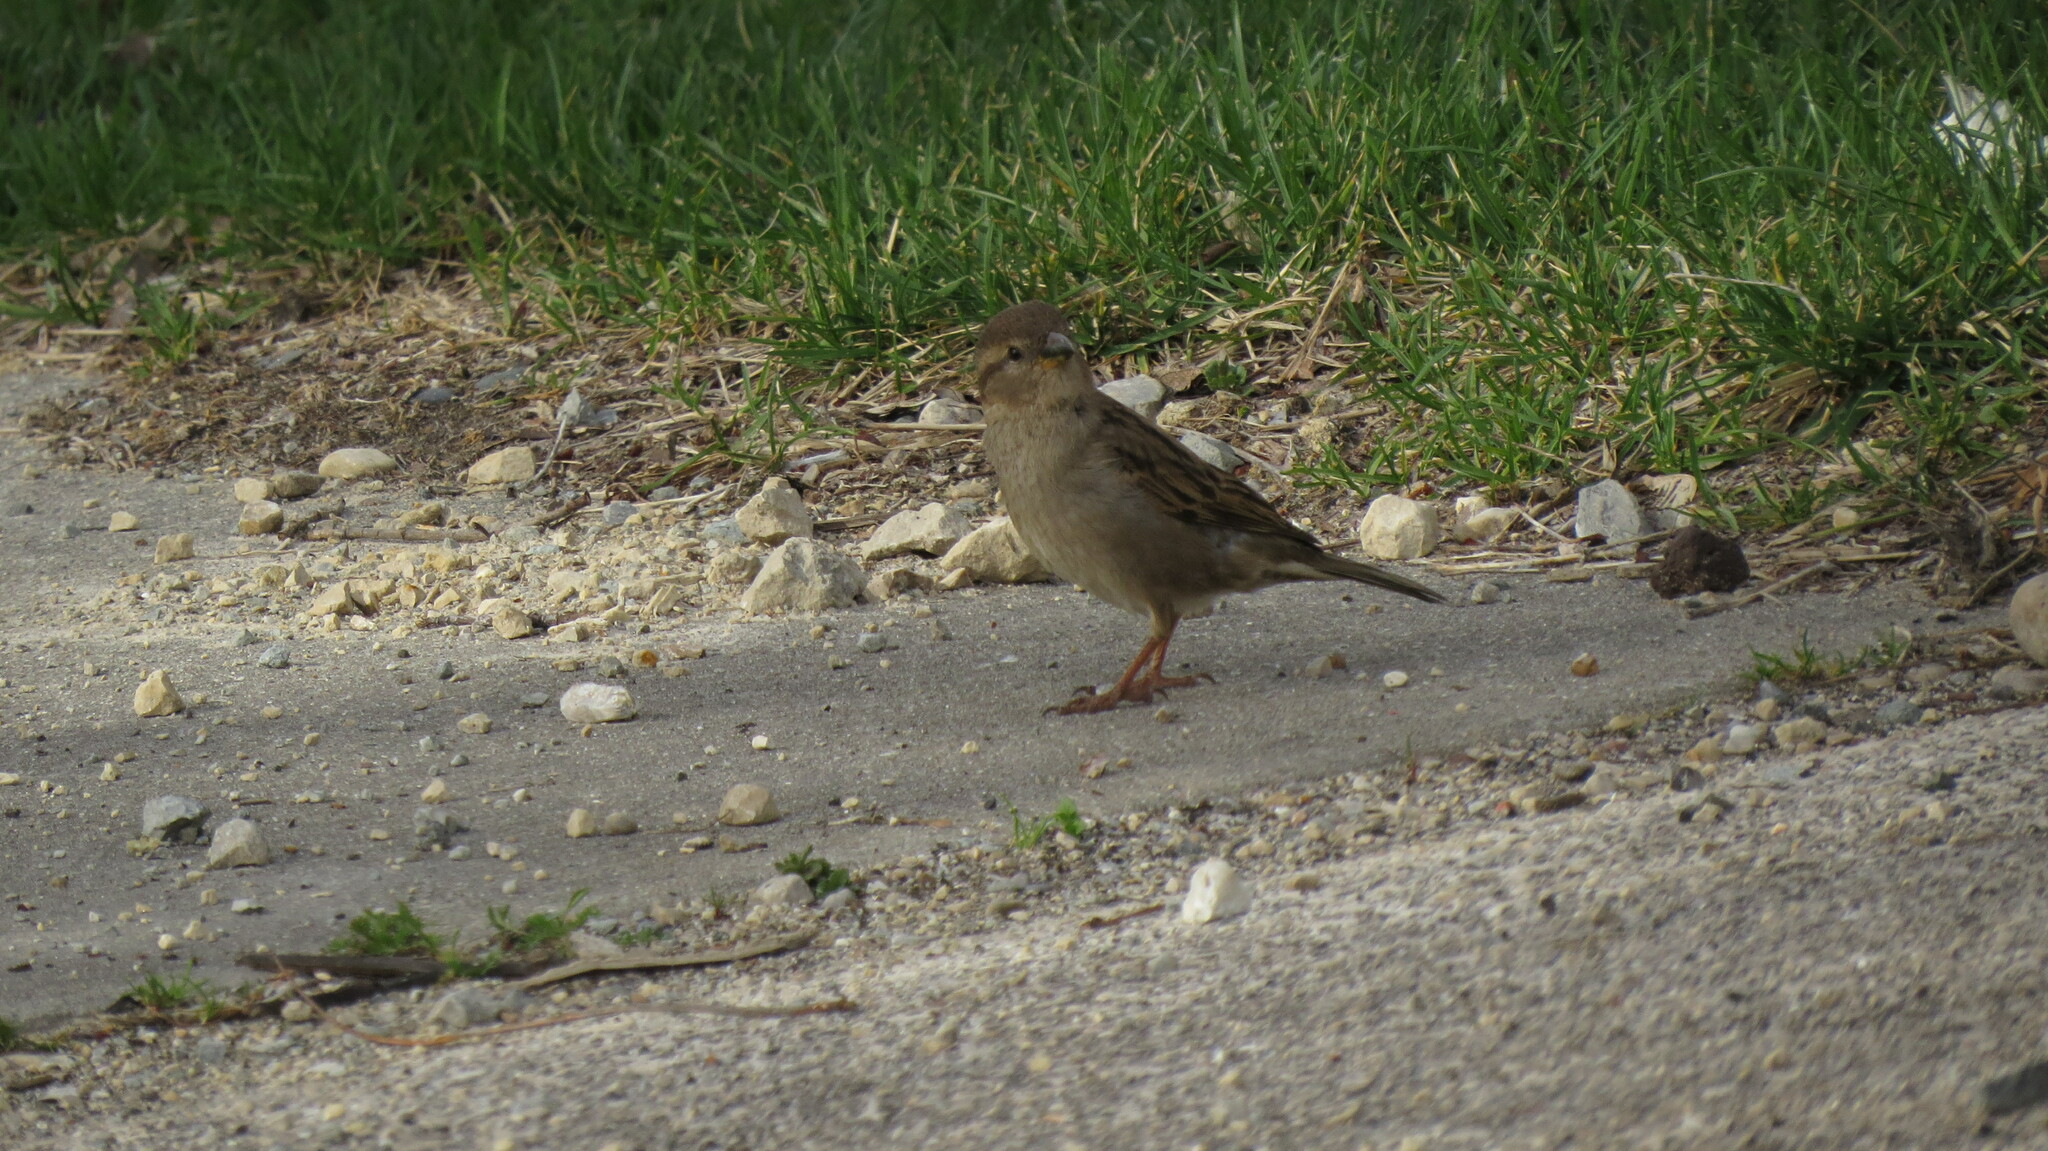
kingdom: Animalia
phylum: Chordata
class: Aves
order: Passeriformes
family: Passeridae
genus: Passer
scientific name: Passer domesticus
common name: House sparrow
